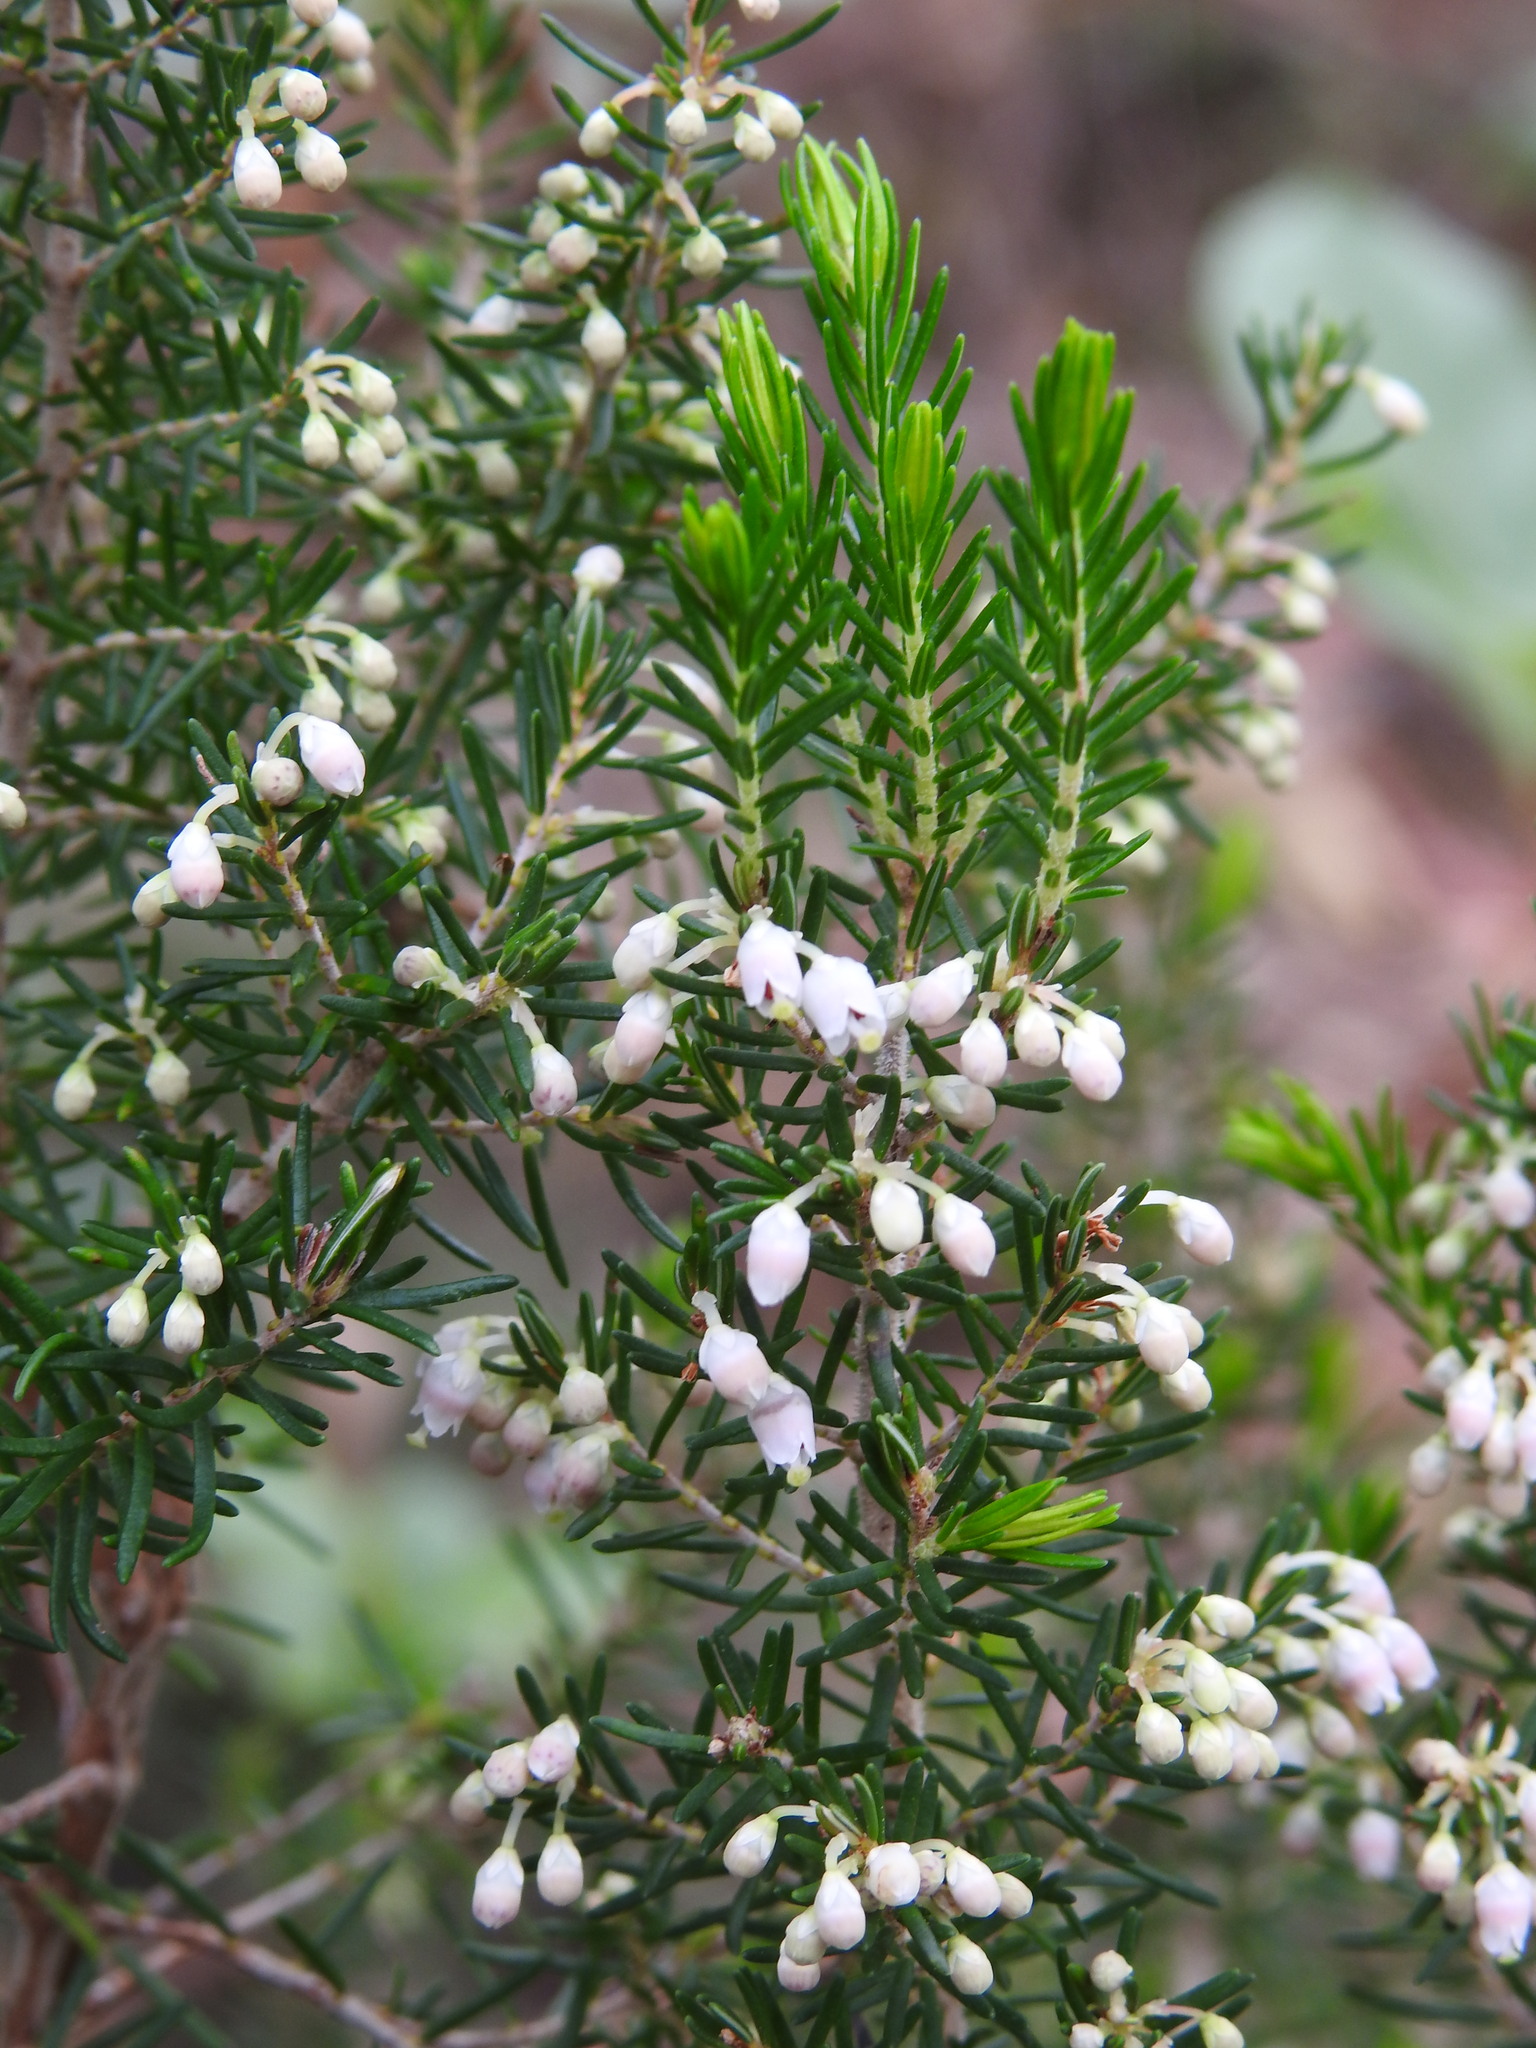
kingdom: Plantae
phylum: Tracheophyta
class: Magnoliopsida
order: Ericales
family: Ericaceae
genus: Erica
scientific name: Erica arborea
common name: Tree heath
